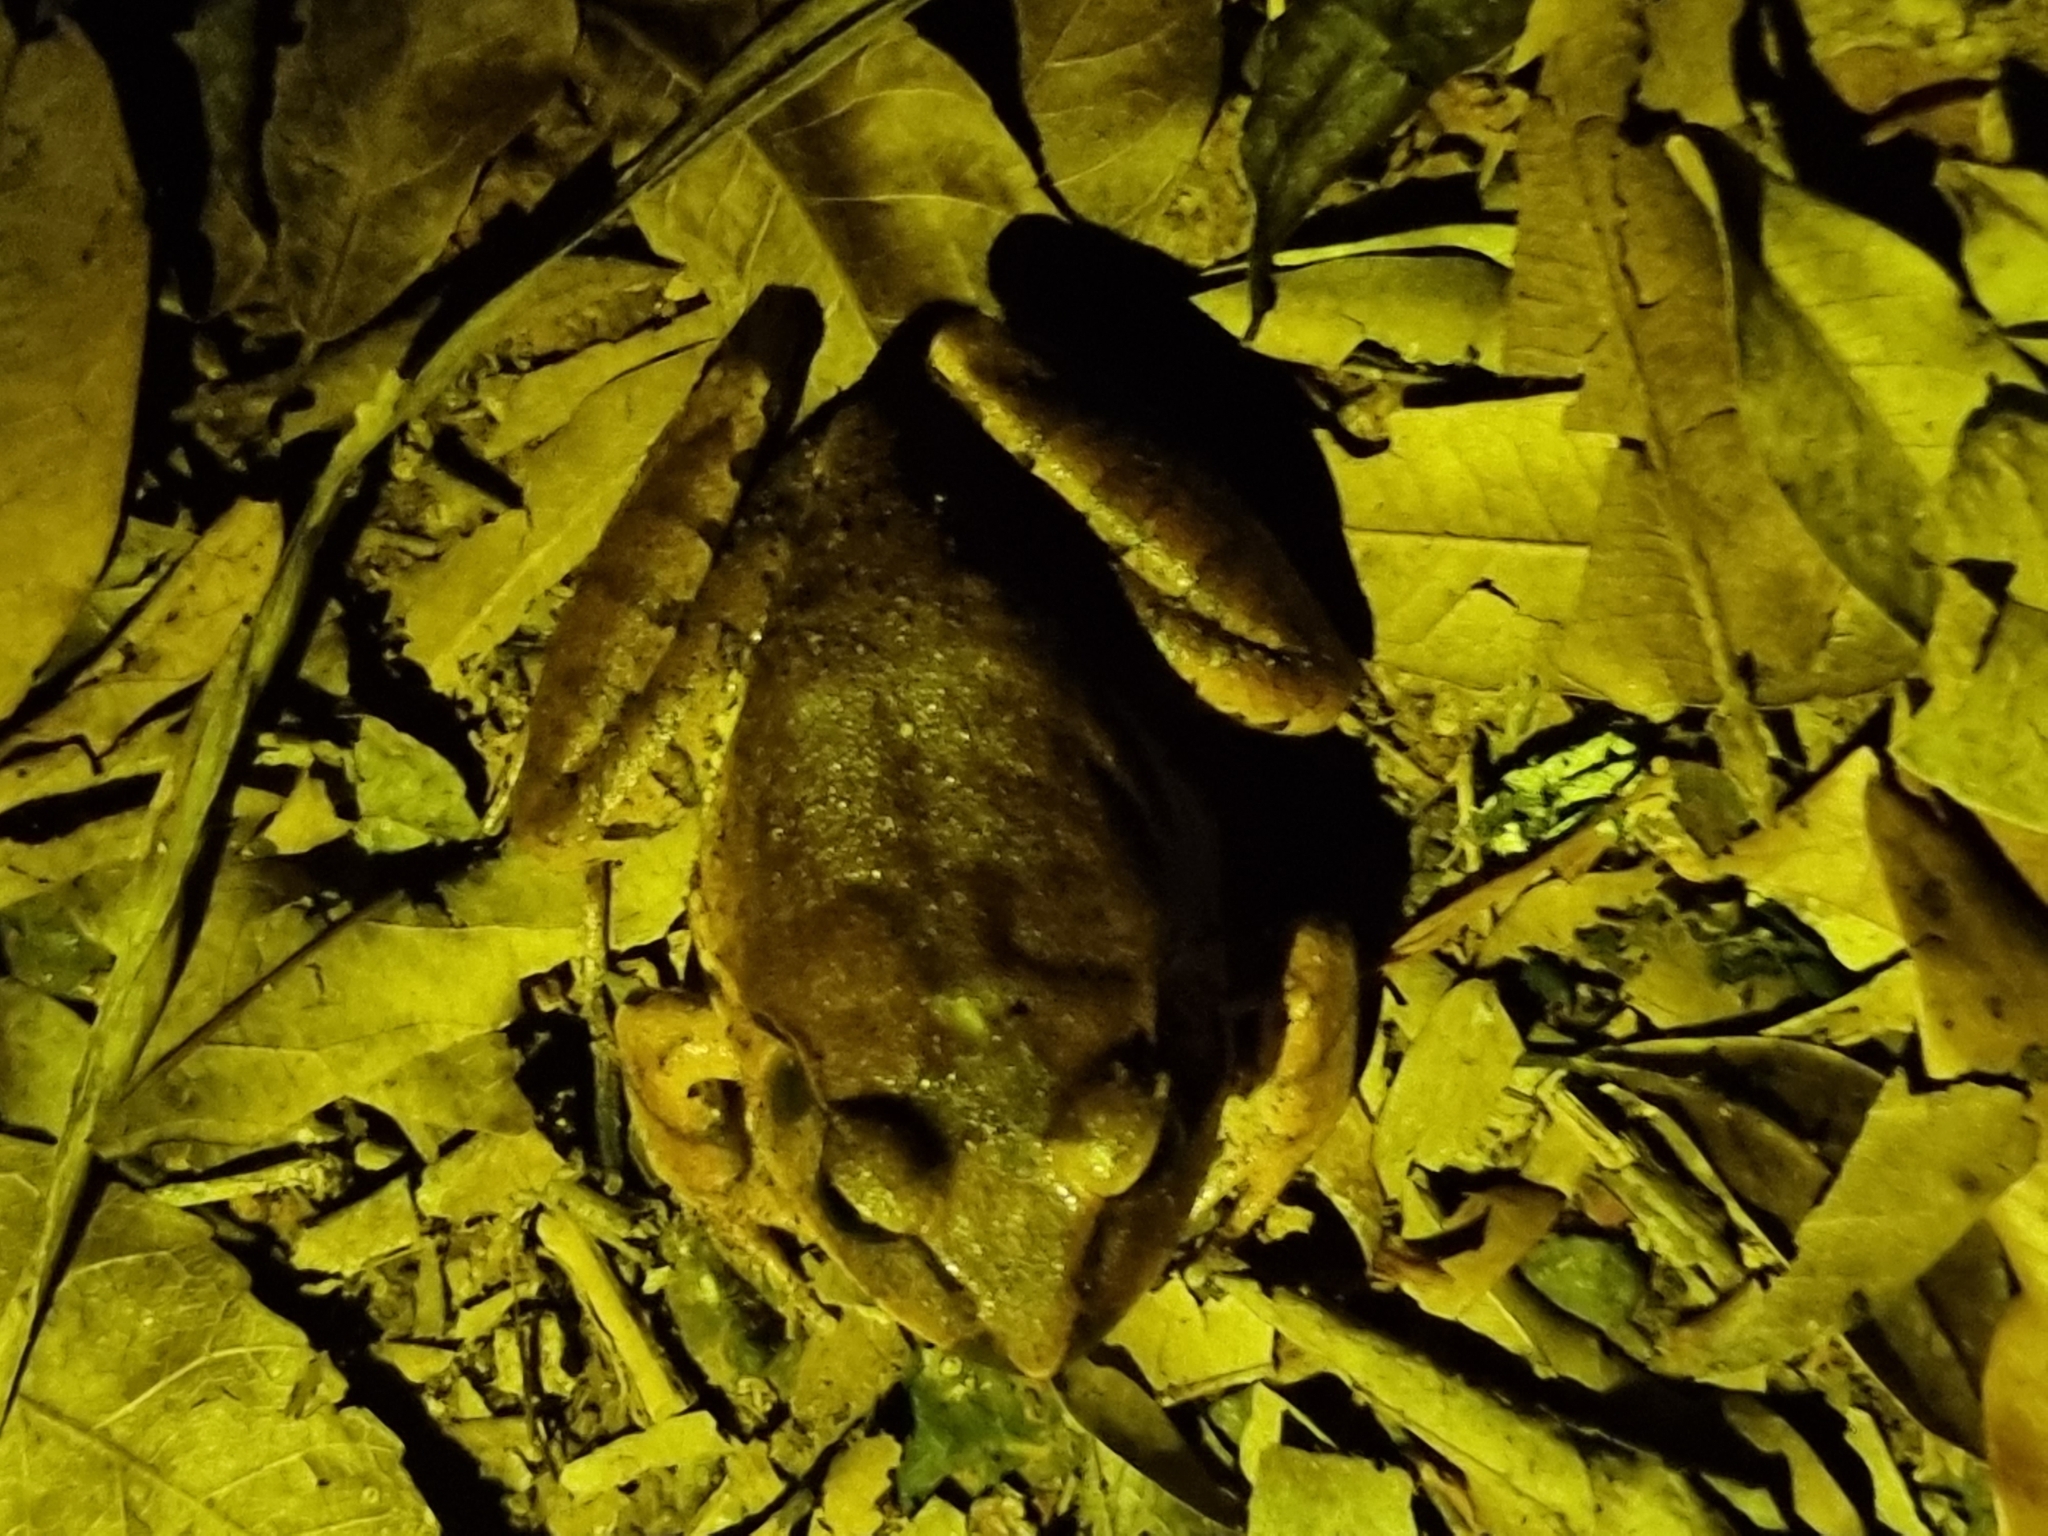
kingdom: Animalia
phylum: Chordata
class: Amphibia
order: Anura
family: Myobatrachidae
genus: Mixophyes
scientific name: Mixophyes fasciolatus
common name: Great barred river-frog
